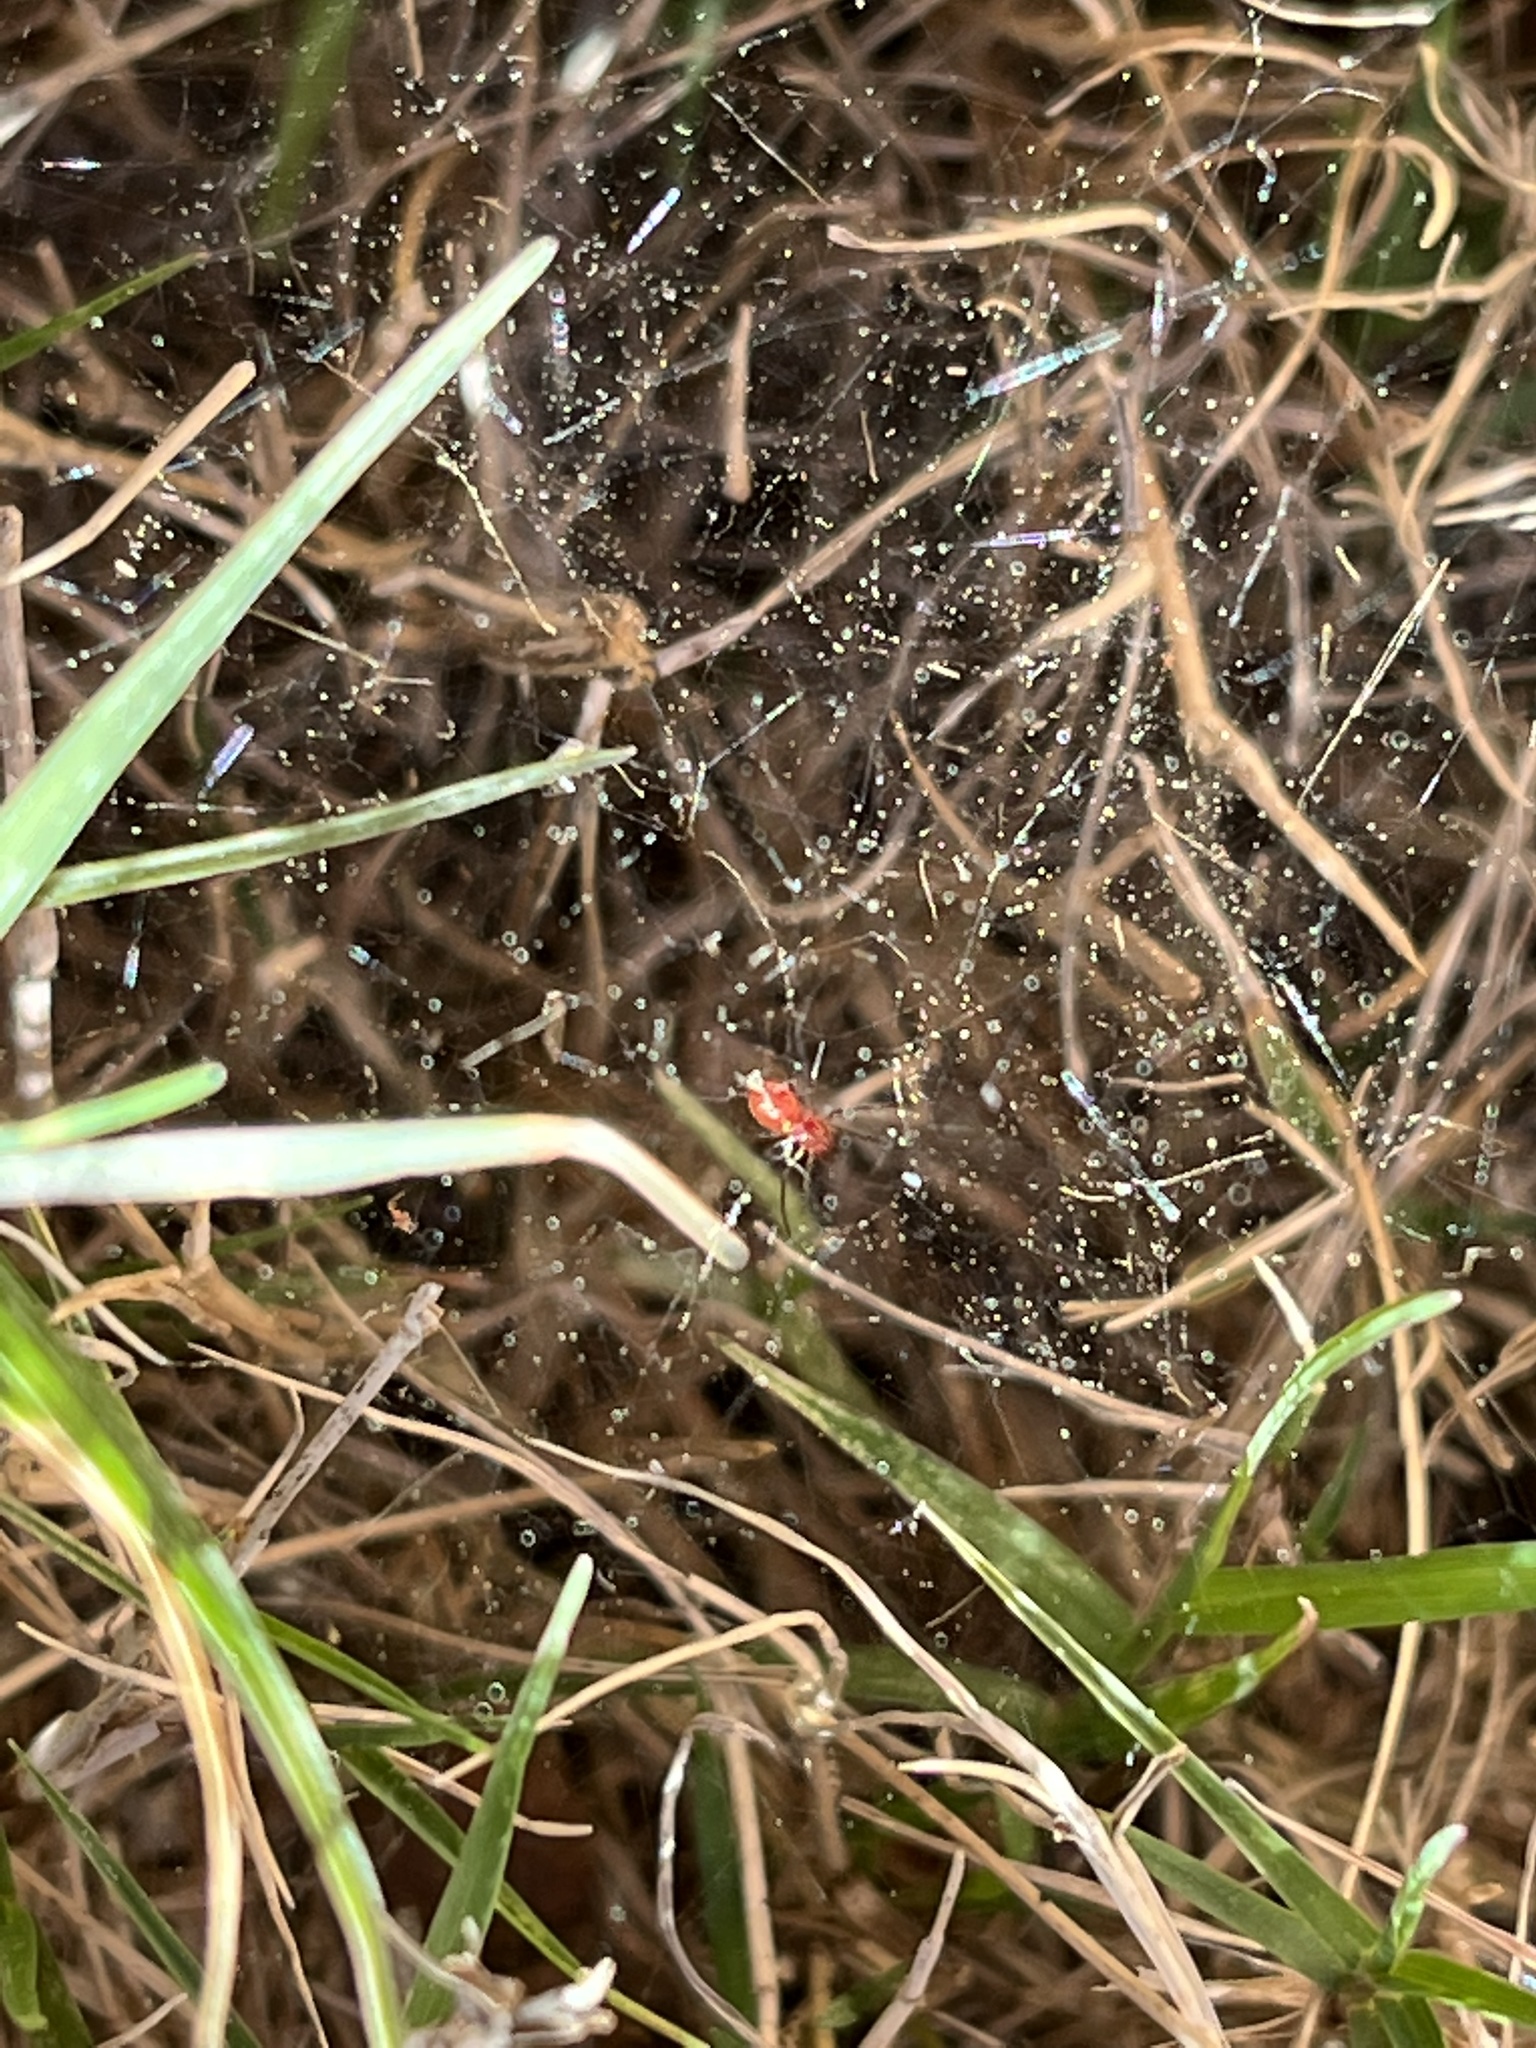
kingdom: Animalia
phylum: Arthropoda
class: Arachnida
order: Araneae
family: Linyphiidae
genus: Florinda
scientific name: Florinda coccinea
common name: Black-tailed red sheetweaver
